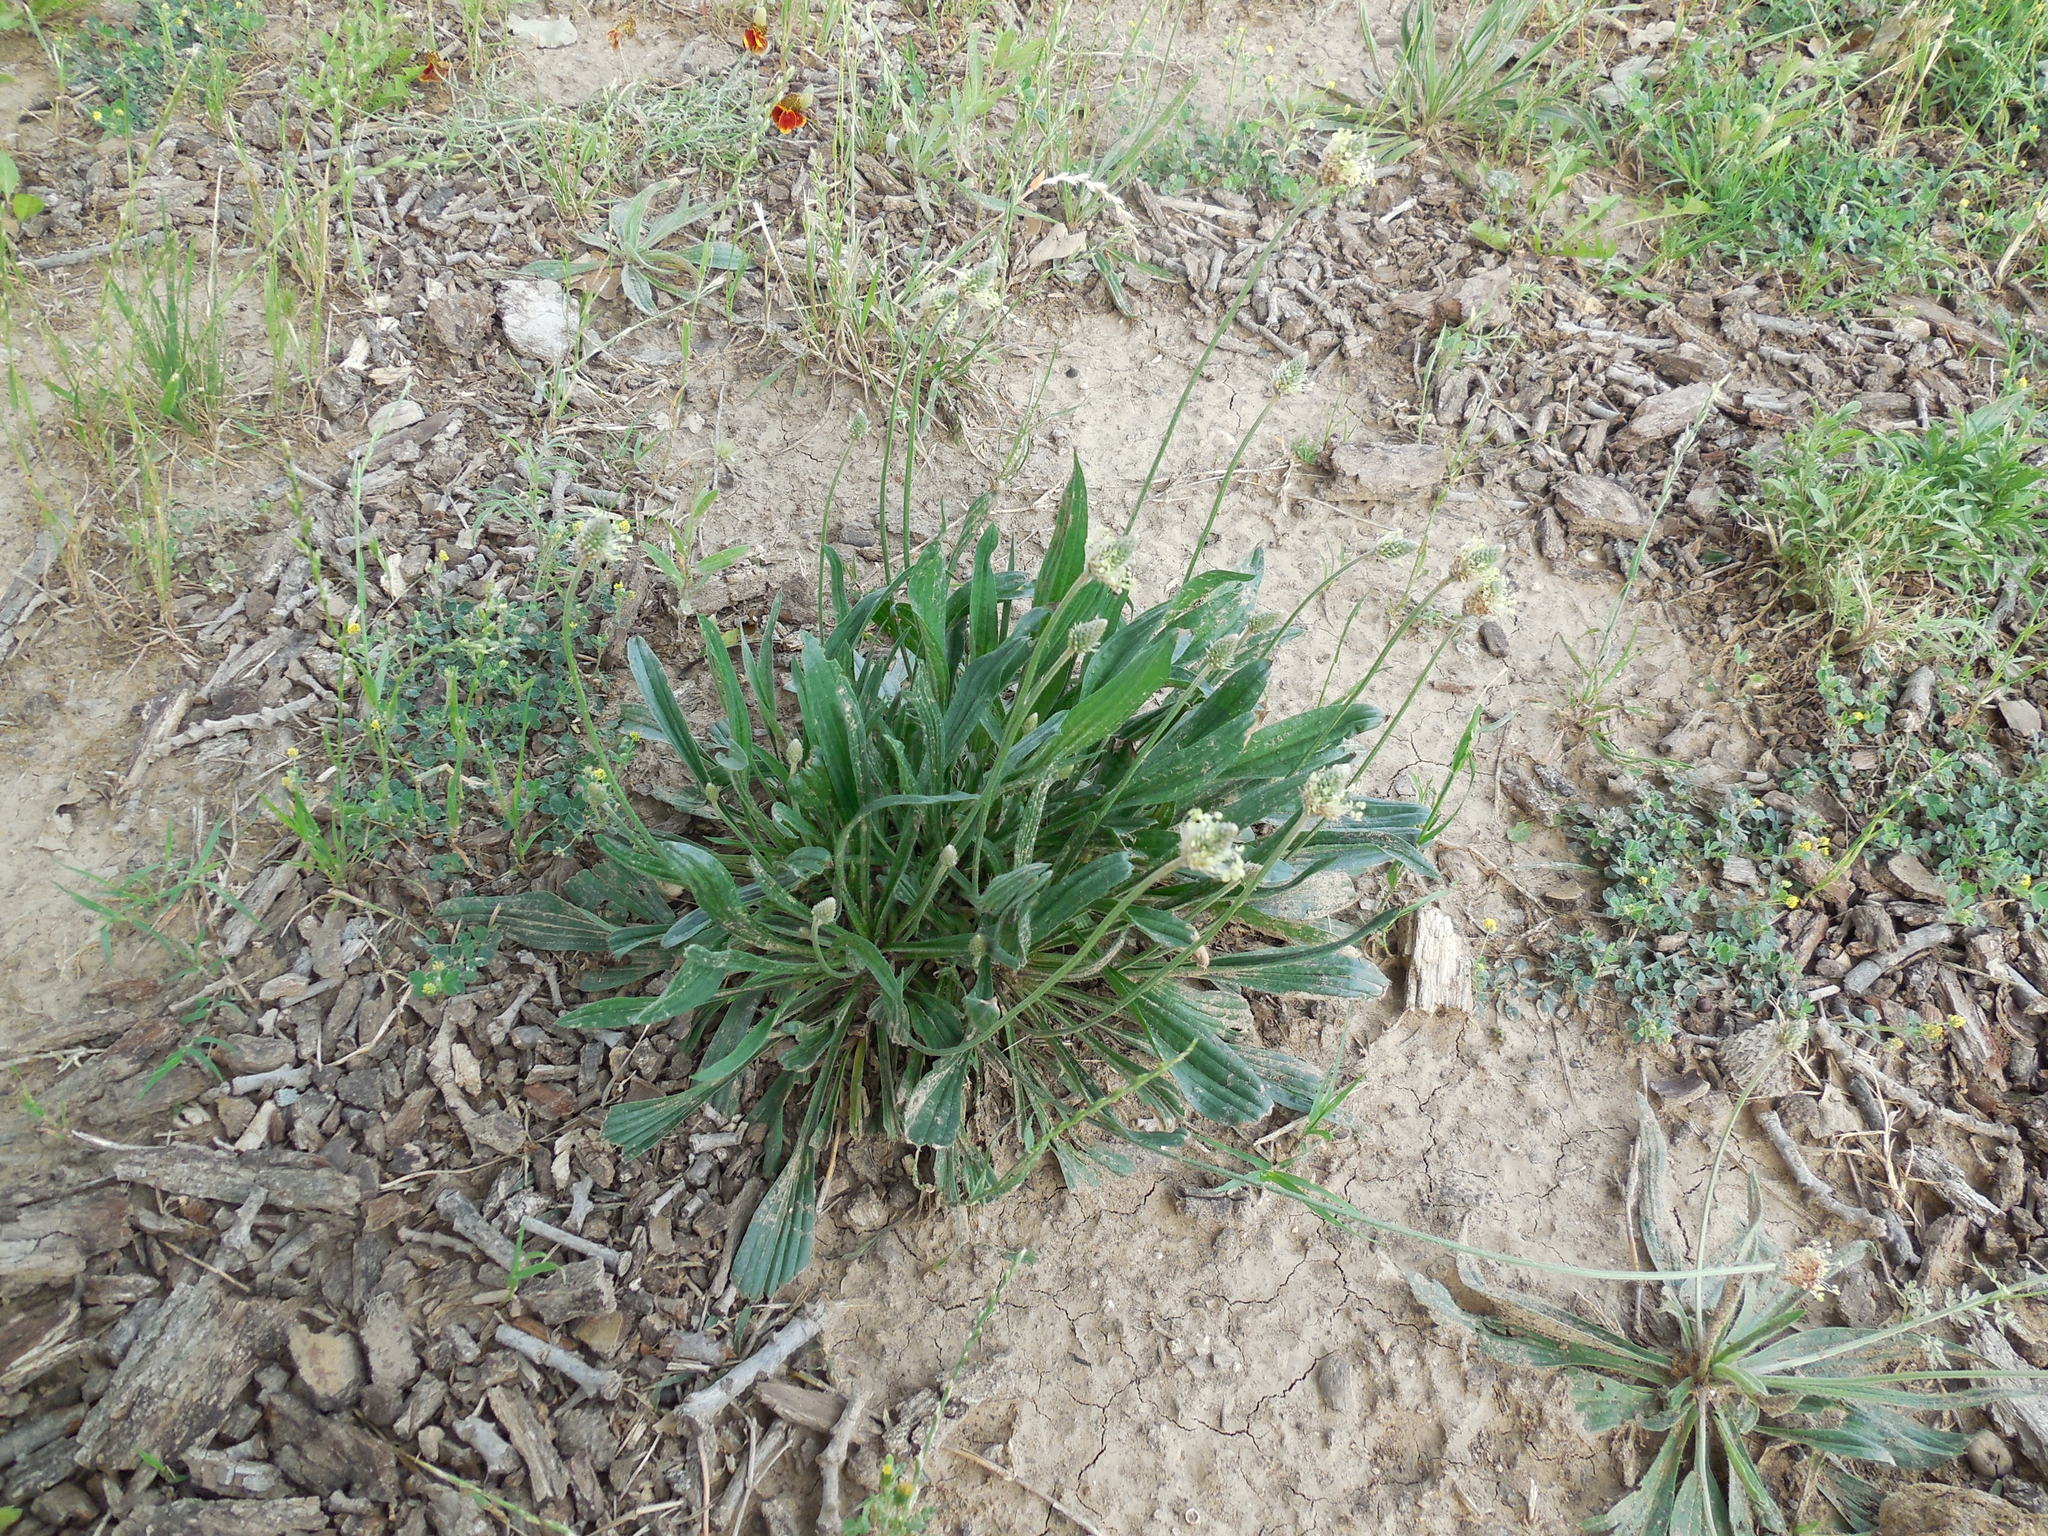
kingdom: Plantae
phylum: Tracheophyta
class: Magnoliopsida
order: Lamiales
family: Plantaginaceae
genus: Plantago
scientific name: Plantago lanceolata
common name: Ribwort plantain
